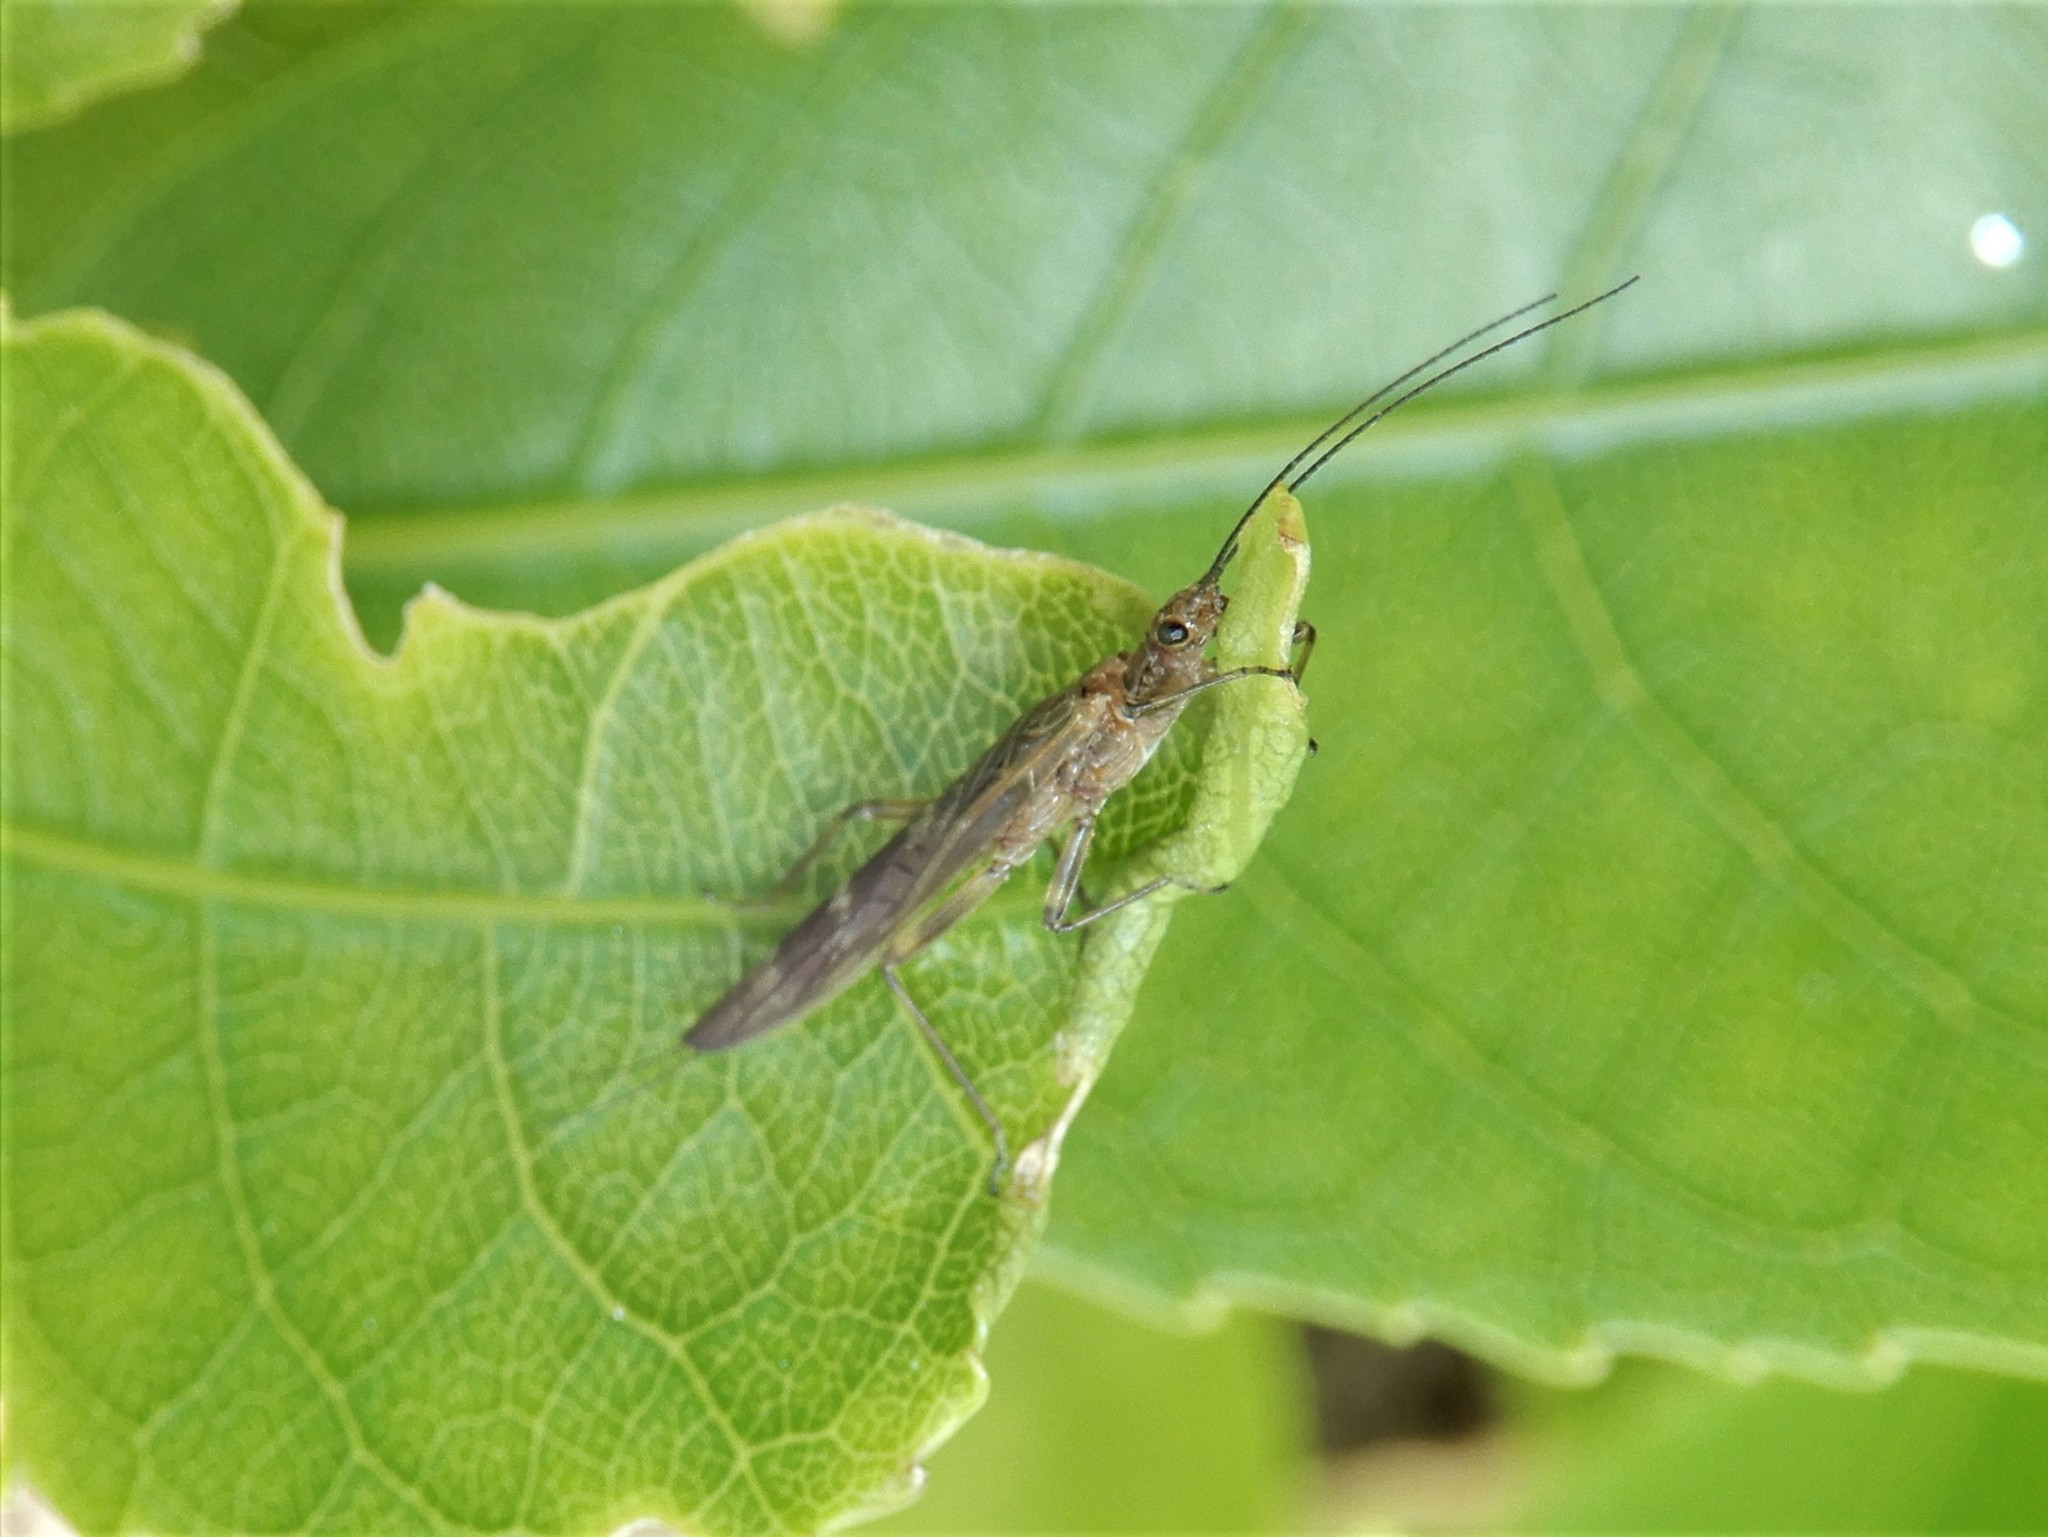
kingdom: Animalia
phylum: Arthropoda
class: Insecta
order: Plecoptera
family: Gripopterygidae
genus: Acroperla
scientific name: Acroperla trivacuata
